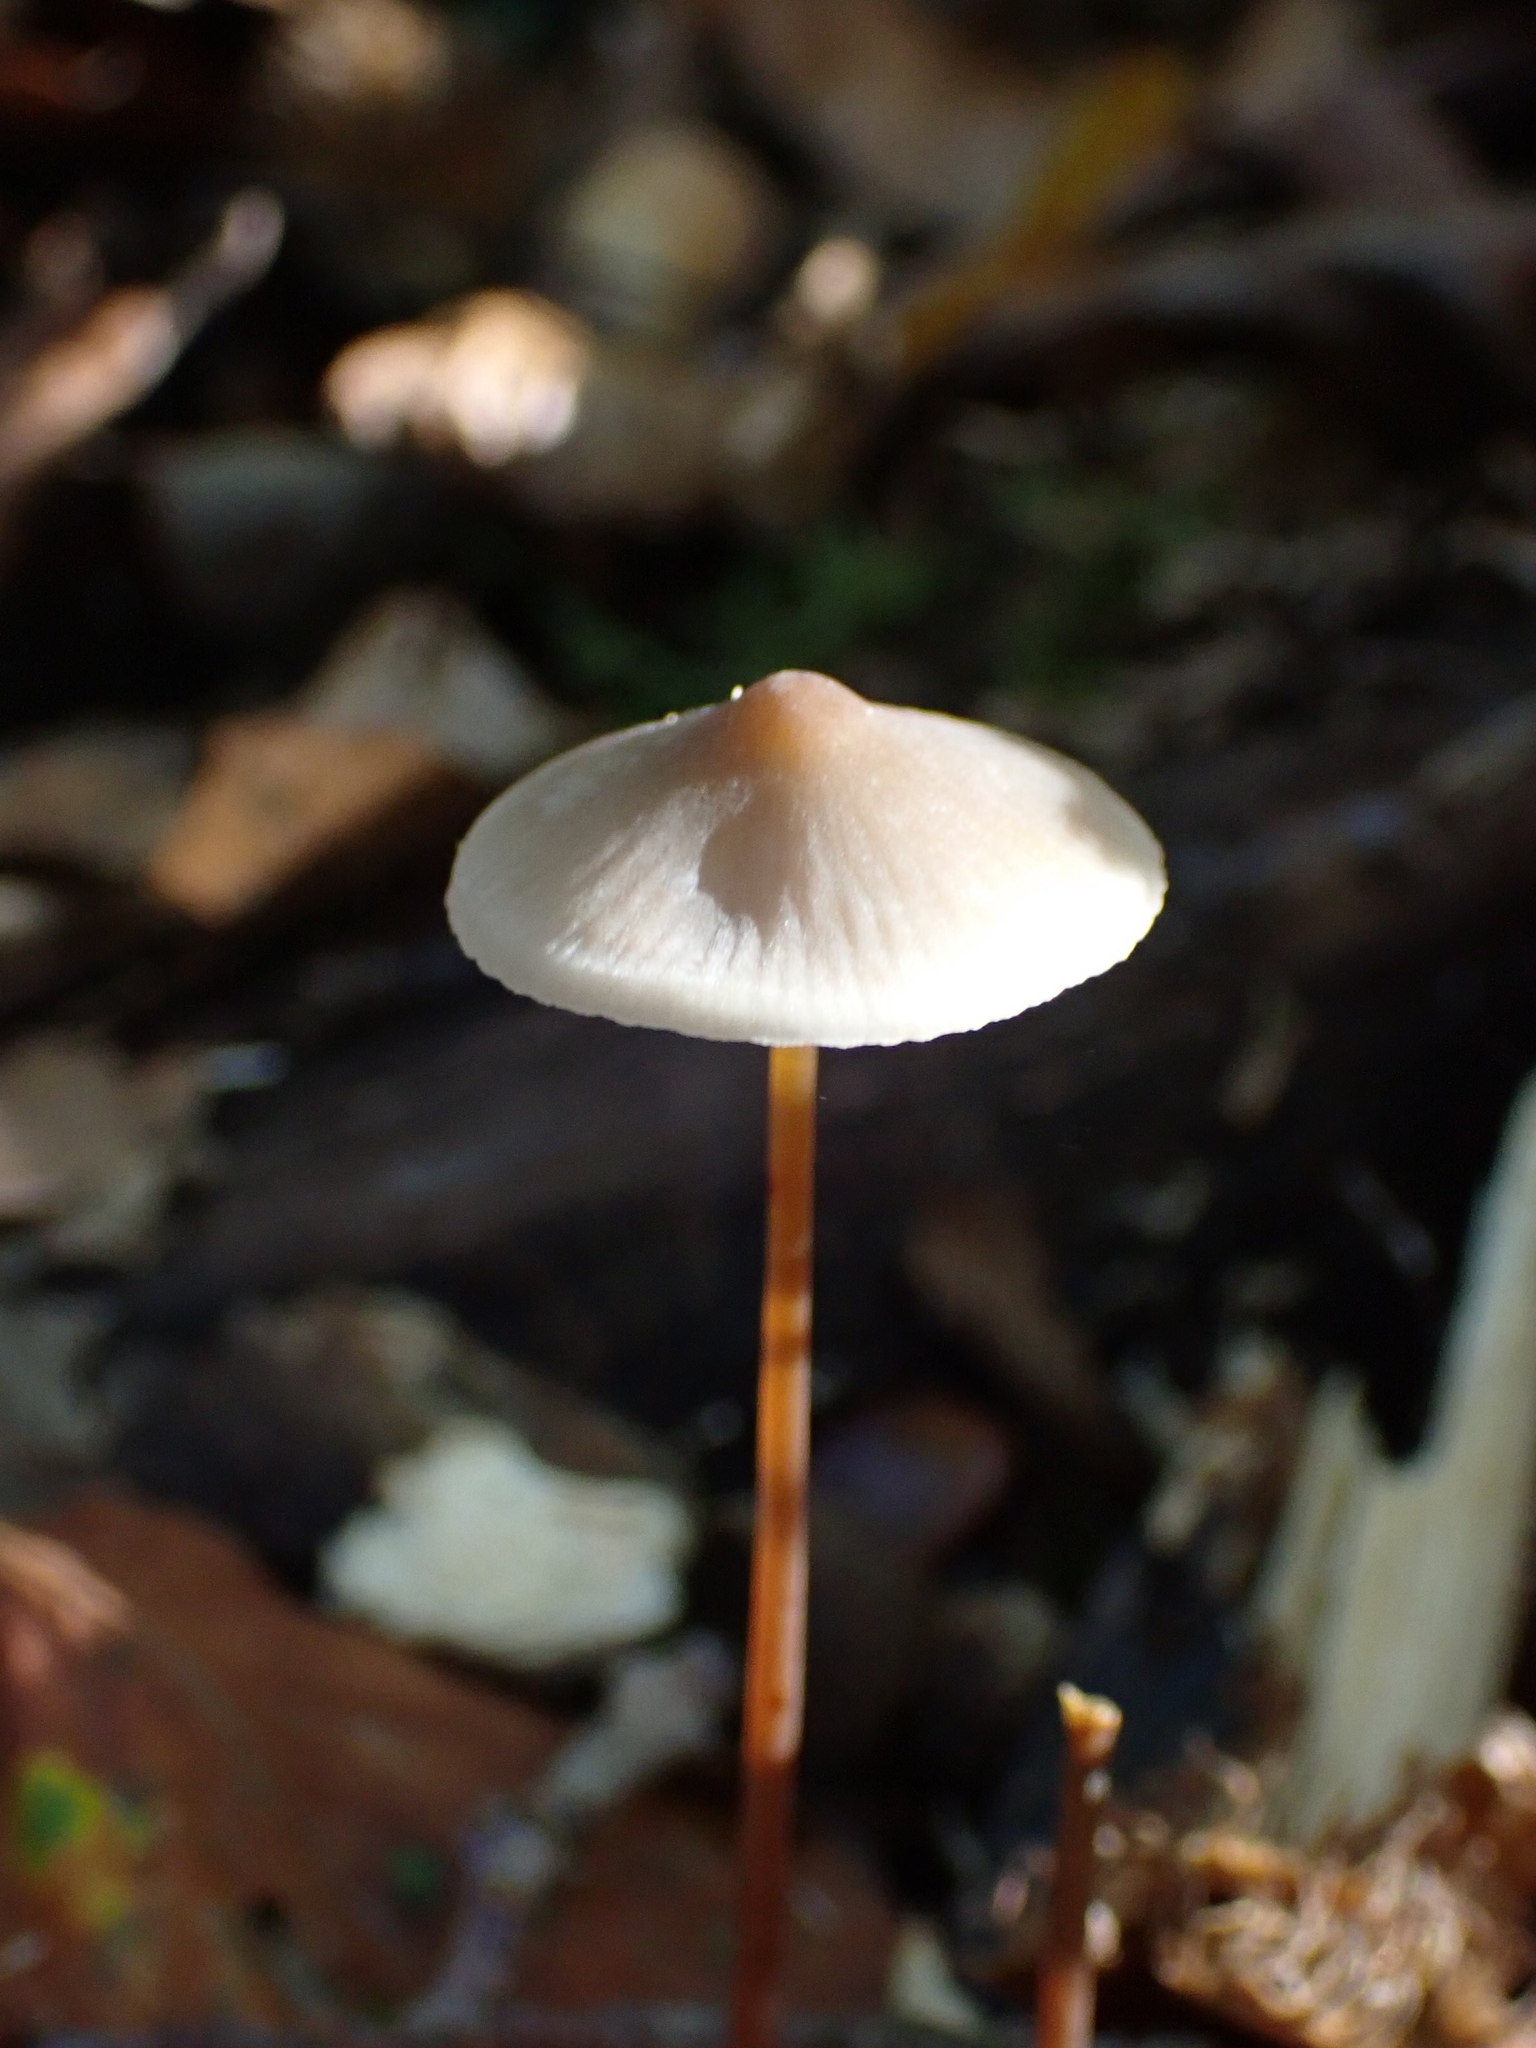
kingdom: Fungi
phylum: Basidiomycota
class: Agaricomycetes
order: Agaricales
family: Mycenaceae
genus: Mycena
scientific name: Mycena crocata
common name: Saffrondrop bonnet
